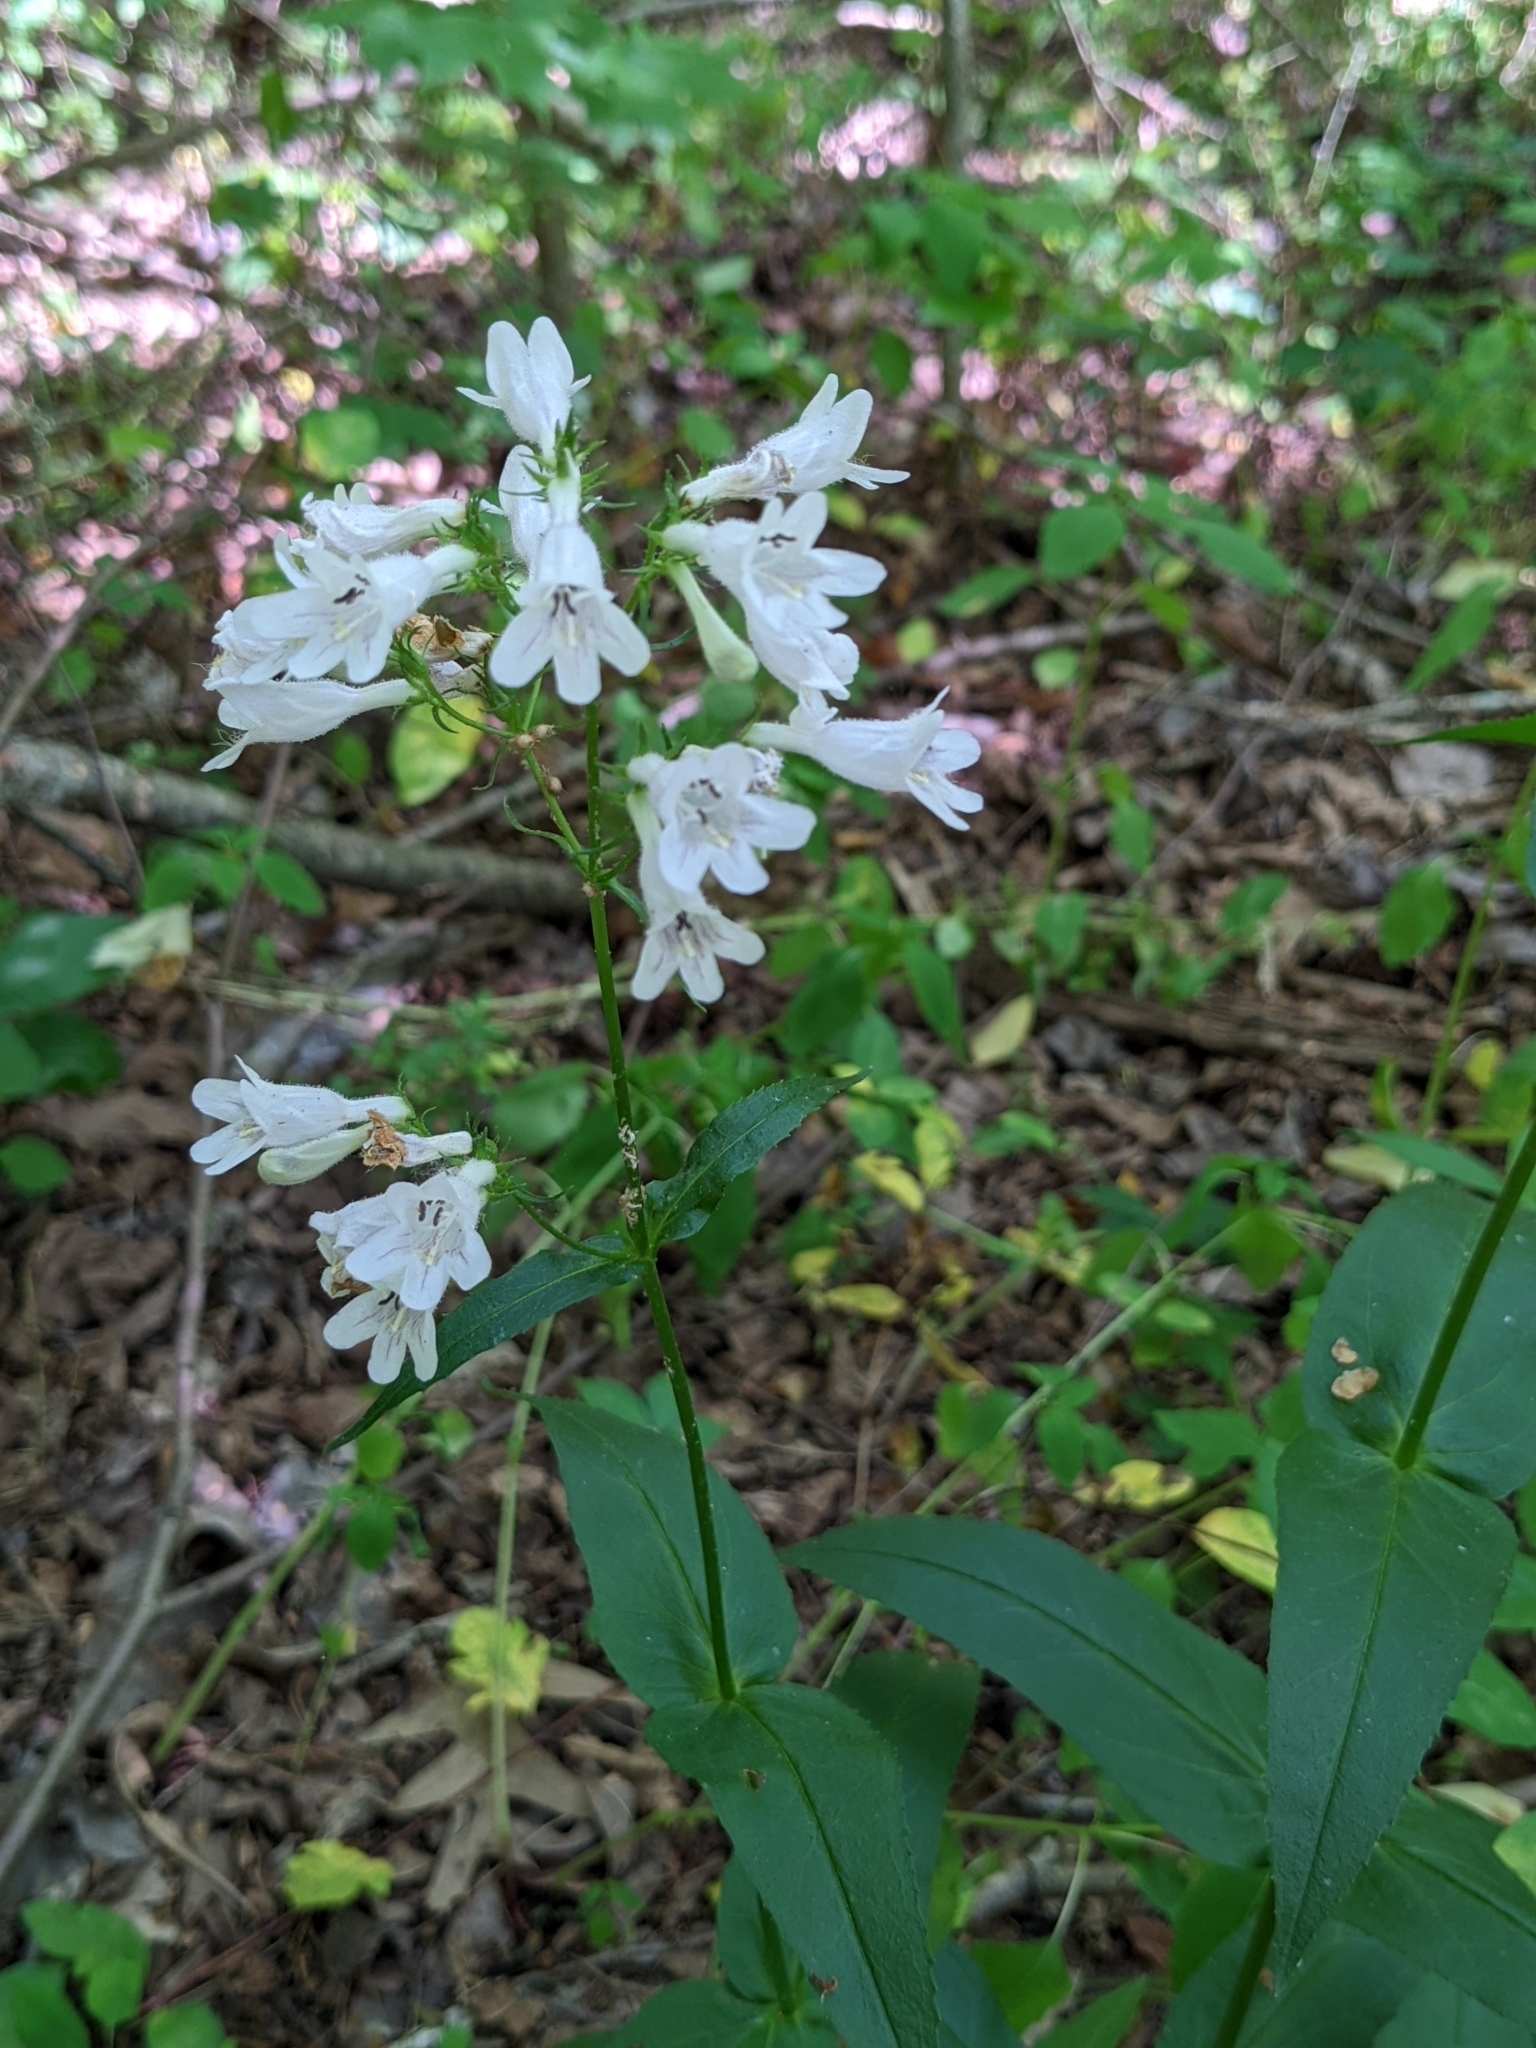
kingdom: Plantae
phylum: Tracheophyta
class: Magnoliopsida
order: Lamiales
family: Plantaginaceae
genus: Penstemon
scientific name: Penstemon digitalis
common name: Foxglove beardtongue
